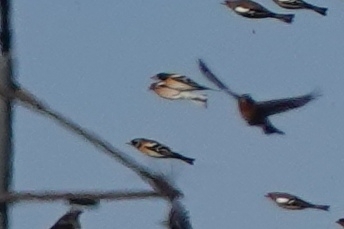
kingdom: Animalia
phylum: Chordata
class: Aves
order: Passeriformes
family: Fringillidae
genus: Fringilla
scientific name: Fringilla montifringilla
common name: Brambling
